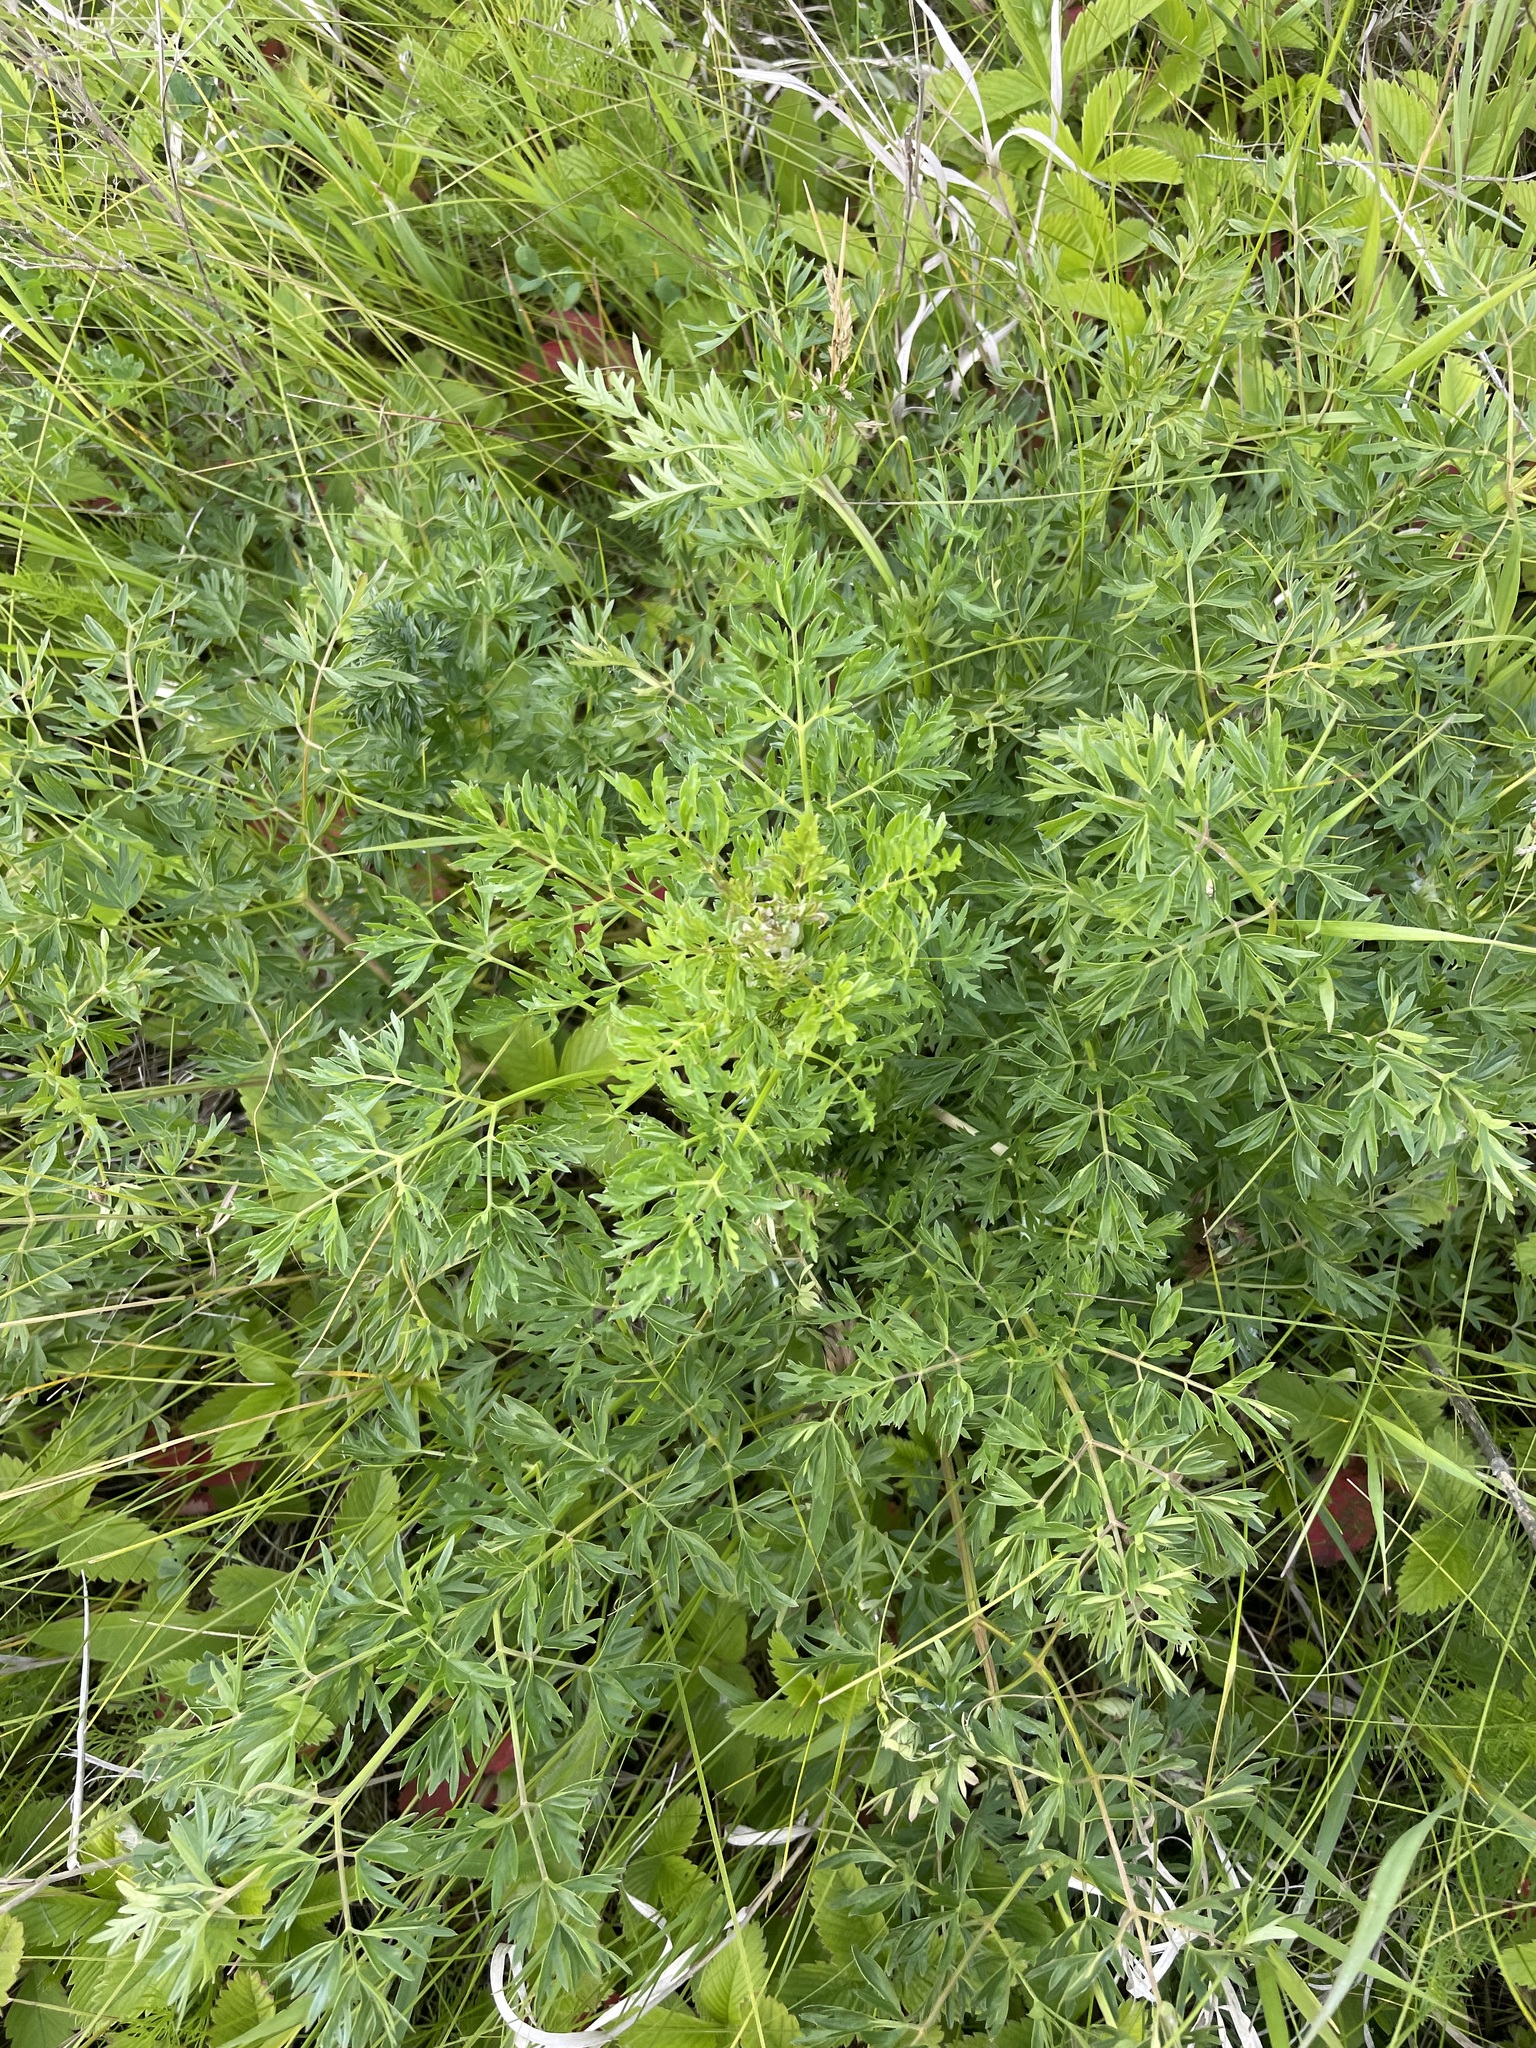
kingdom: Plantae
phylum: Tracheophyta
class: Magnoliopsida
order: Apiales
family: Apiaceae
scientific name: Apiaceae
